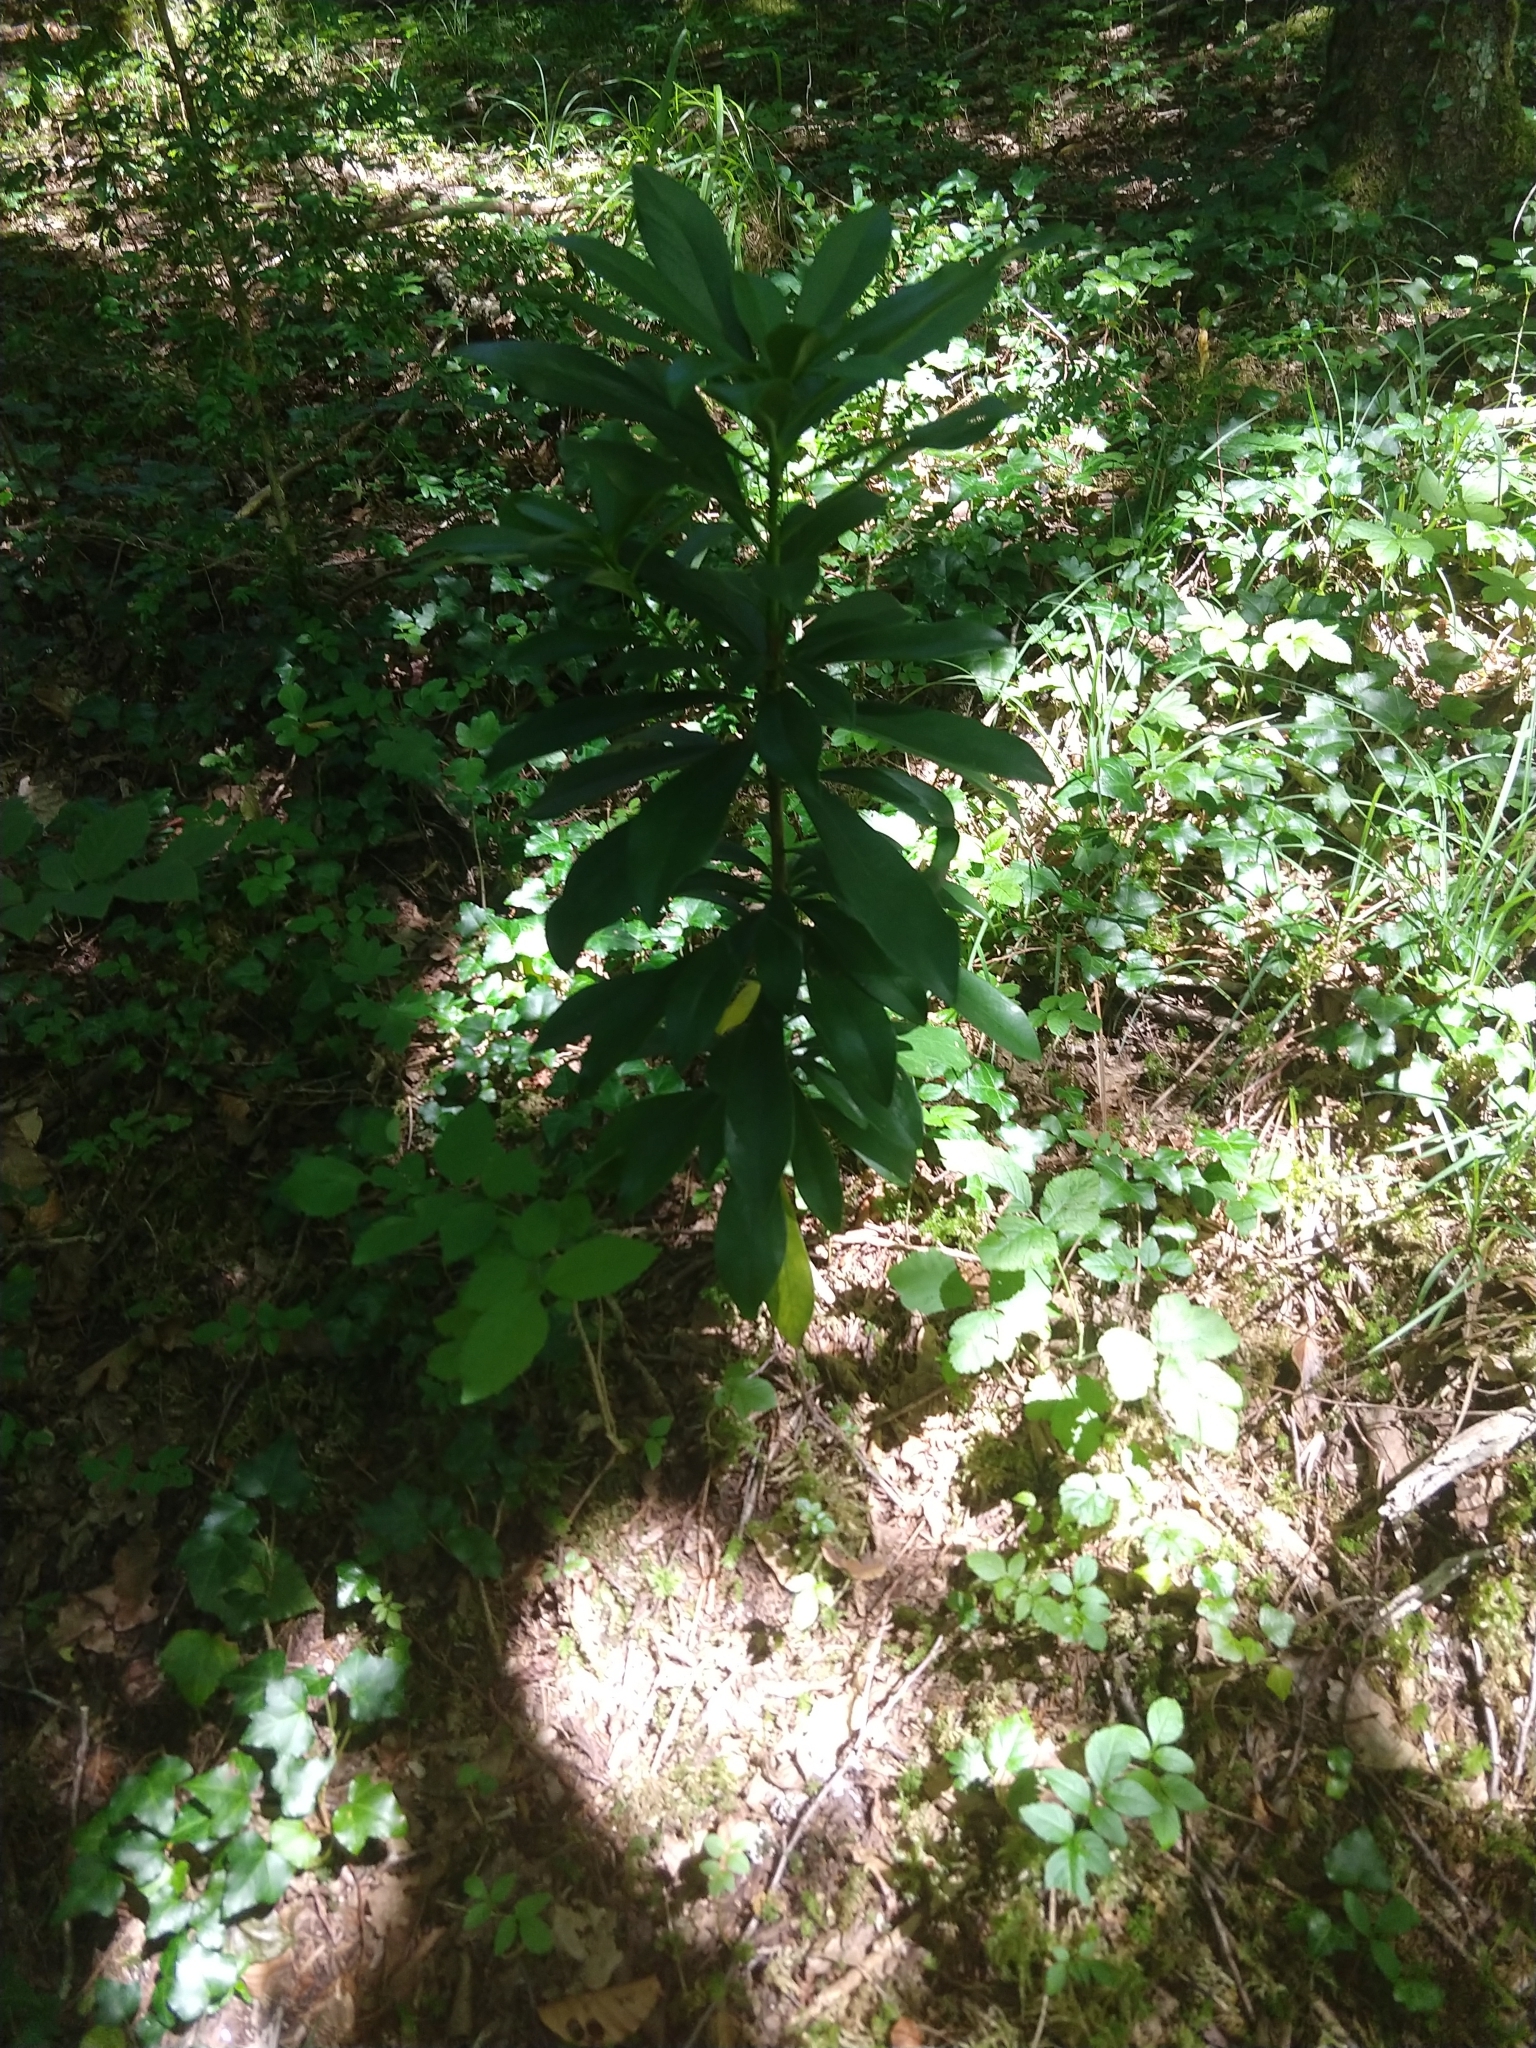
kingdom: Plantae
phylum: Tracheophyta
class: Magnoliopsida
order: Malvales
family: Thymelaeaceae
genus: Daphne
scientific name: Daphne laureola
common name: Spurge-laurel
